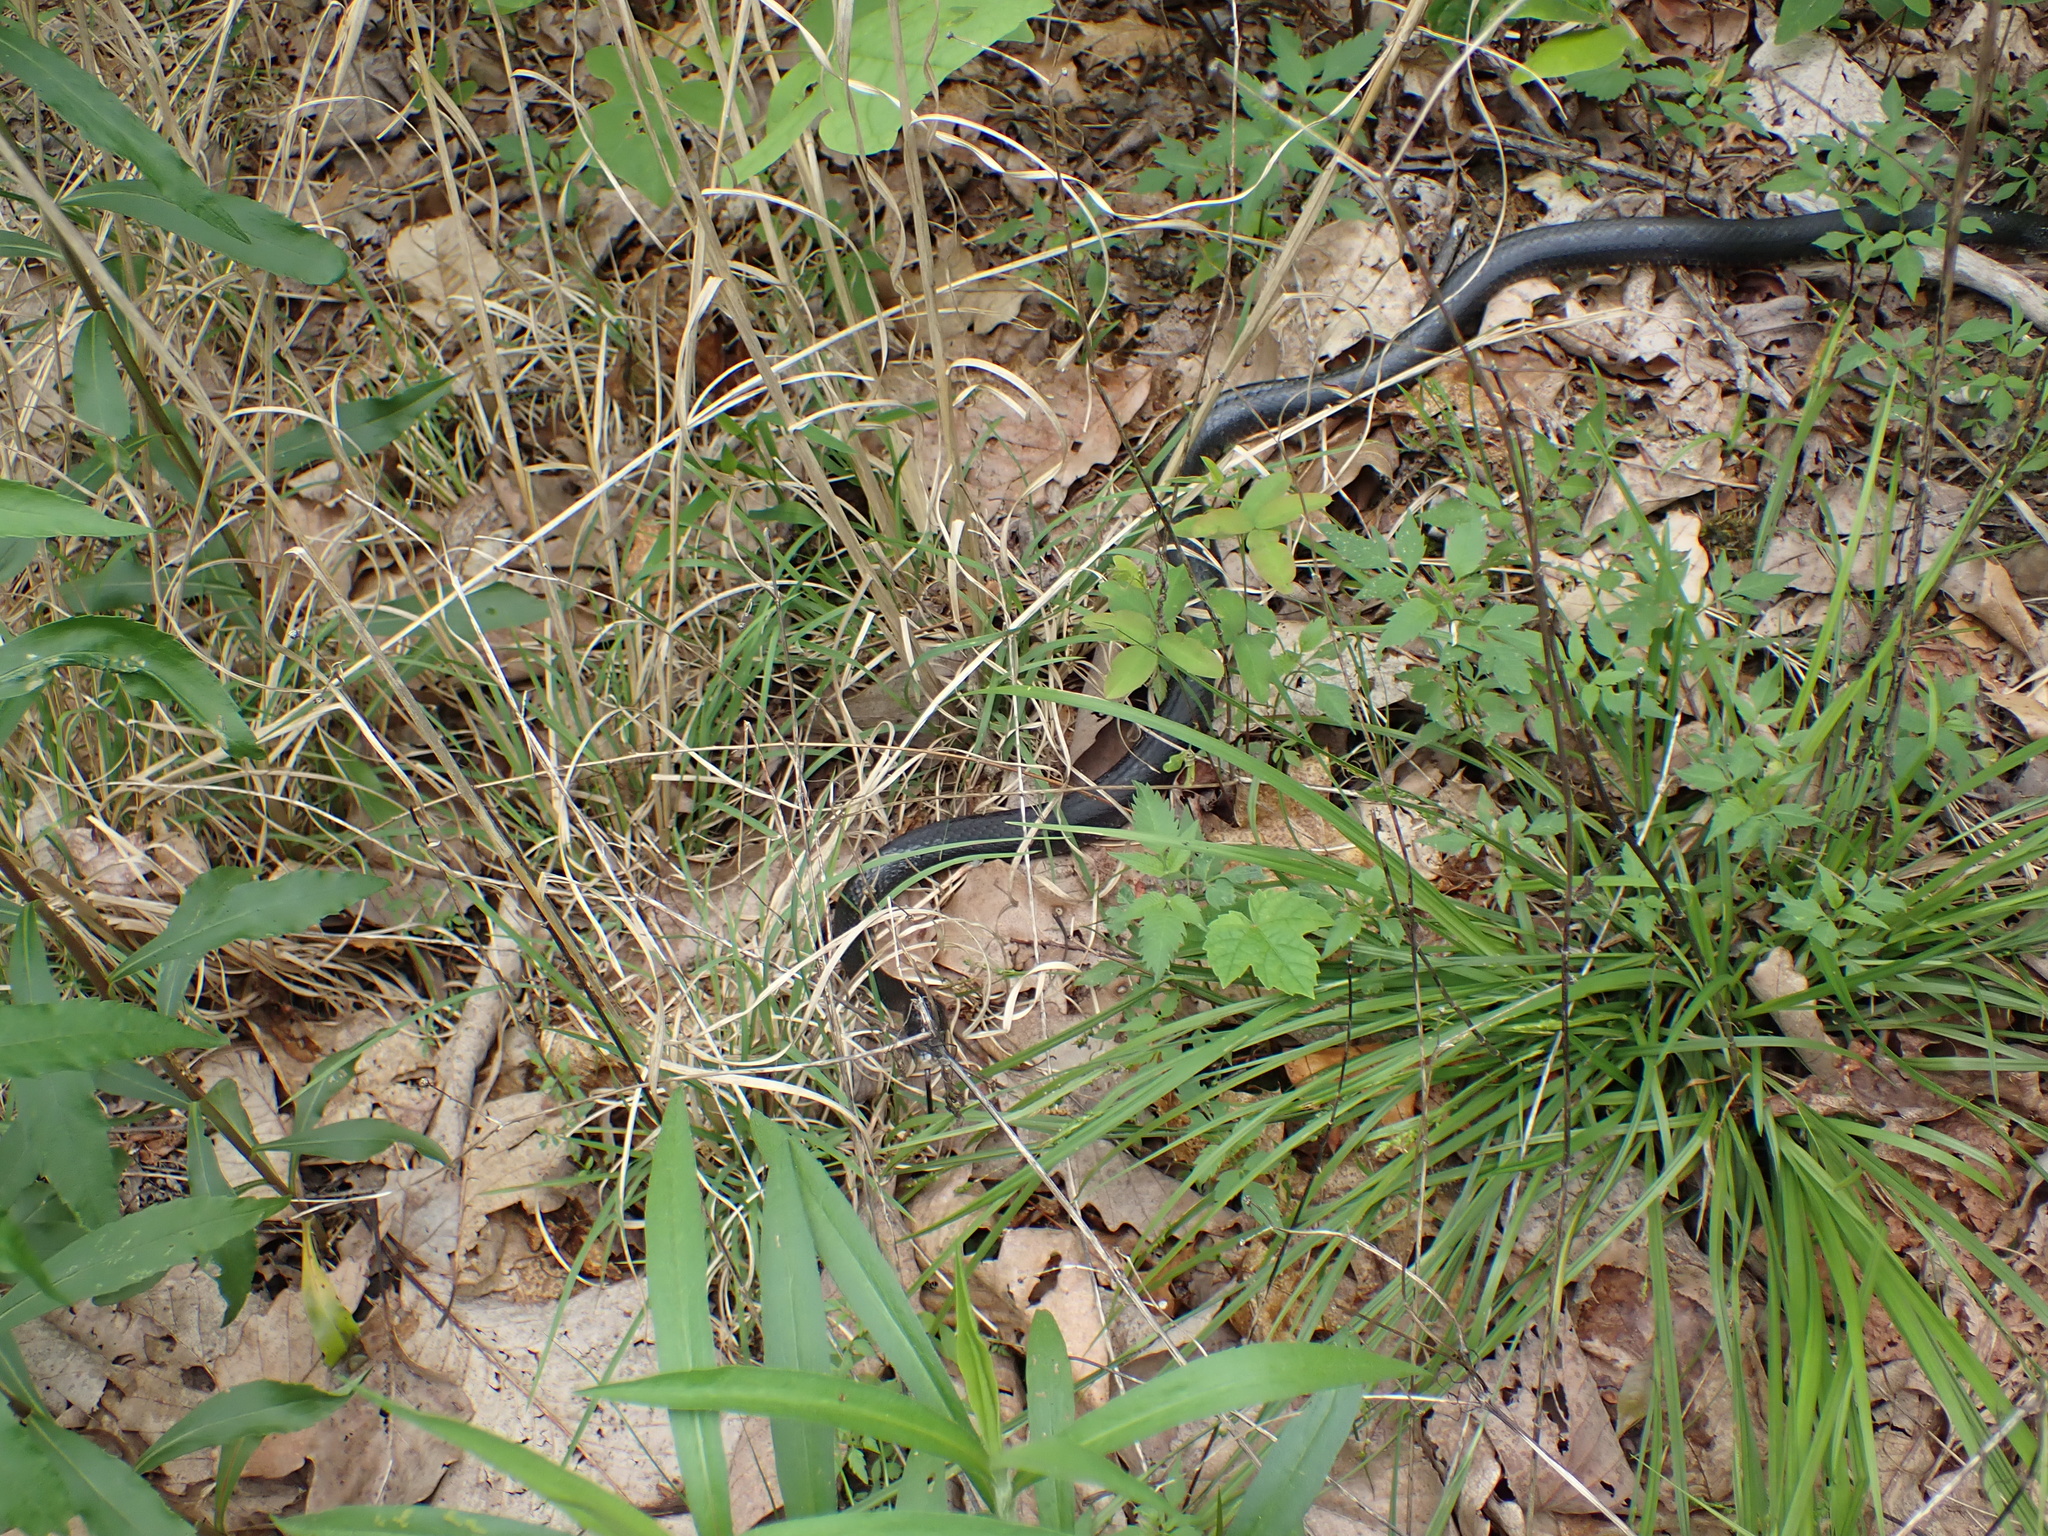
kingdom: Animalia
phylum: Chordata
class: Squamata
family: Colubridae
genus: Coluber
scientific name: Coluber constrictor
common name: Eastern racer
